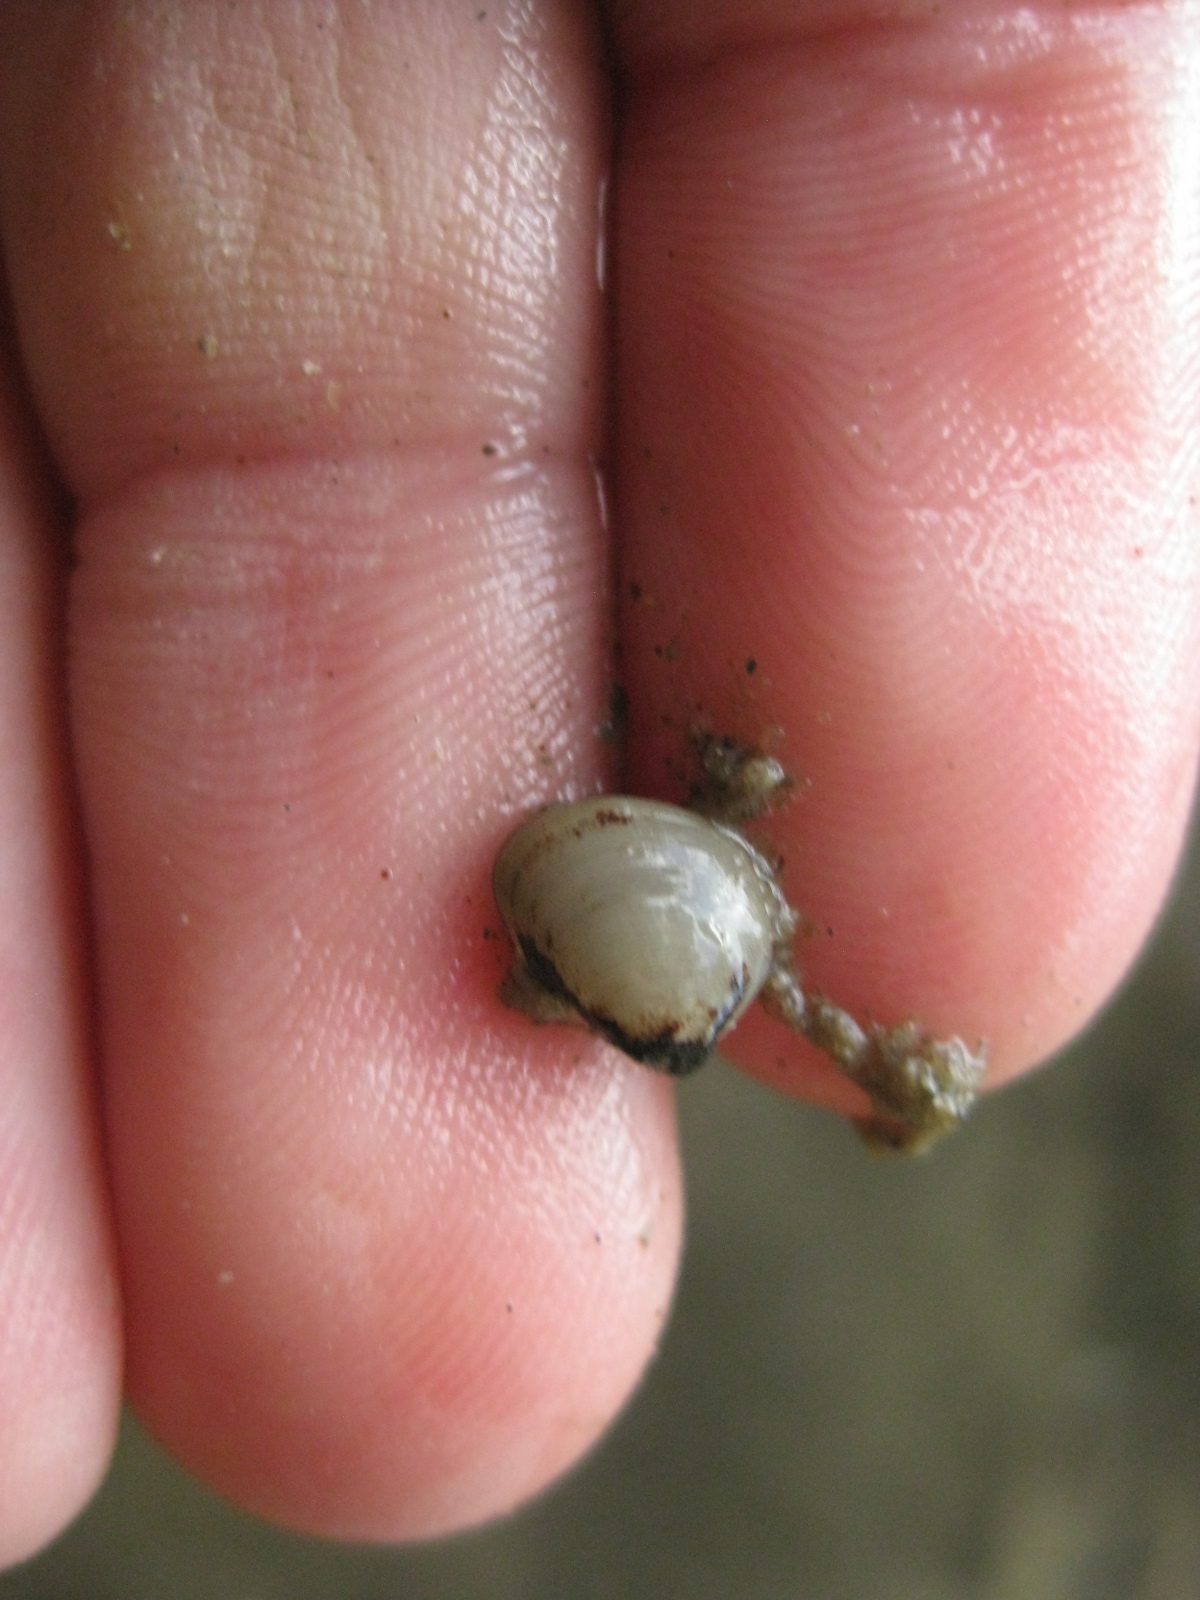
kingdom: Animalia
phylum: Mollusca
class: Bivalvia
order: Nuculida
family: Nuculidae
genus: Linucula
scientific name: Linucula hartvigiana
